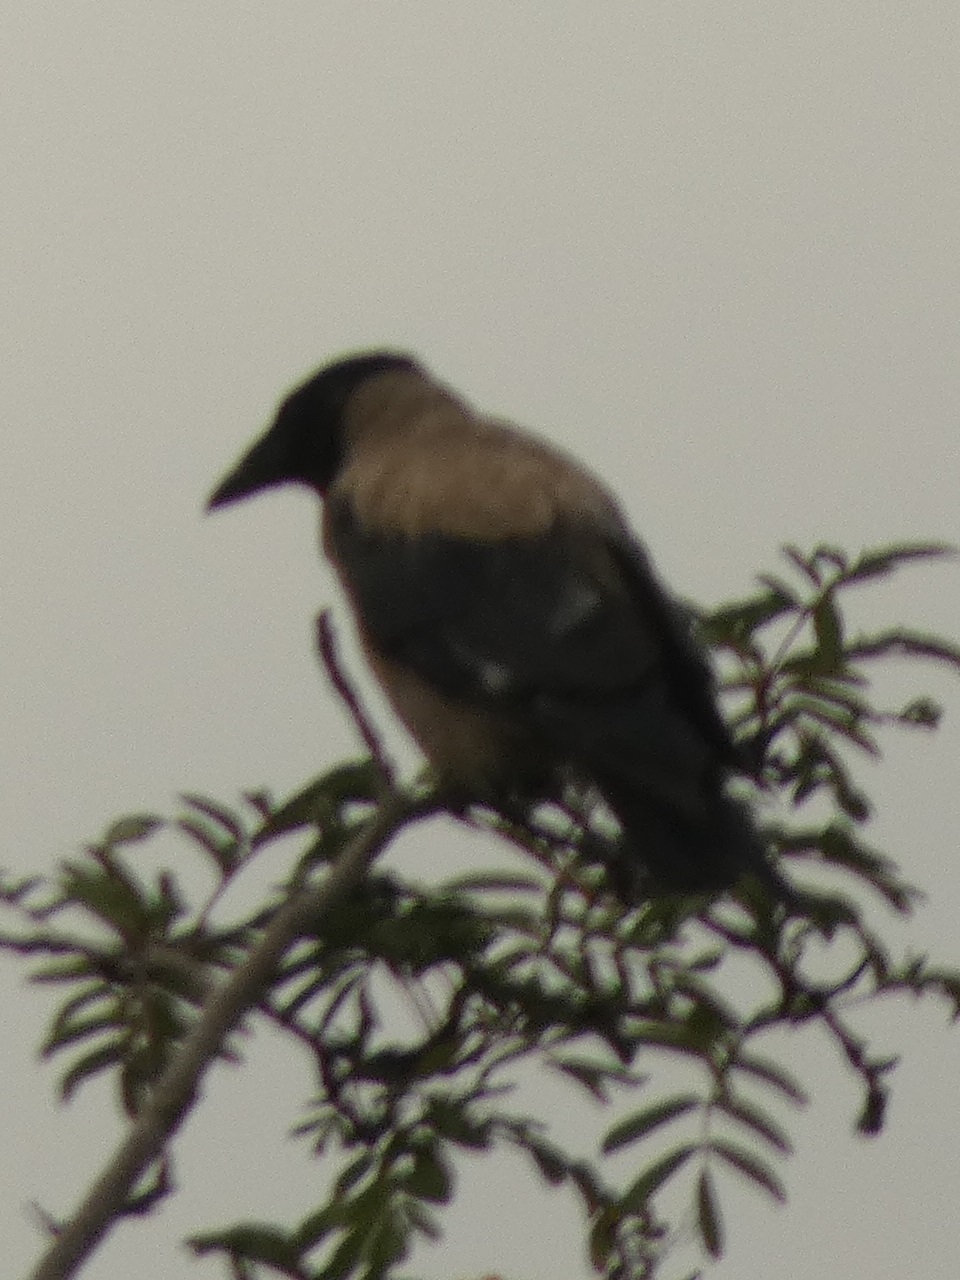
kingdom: Animalia
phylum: Chordata
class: Aves
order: Passeriformes
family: Corvidae
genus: Corvus
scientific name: Corvus cornix
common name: Hooded crow
